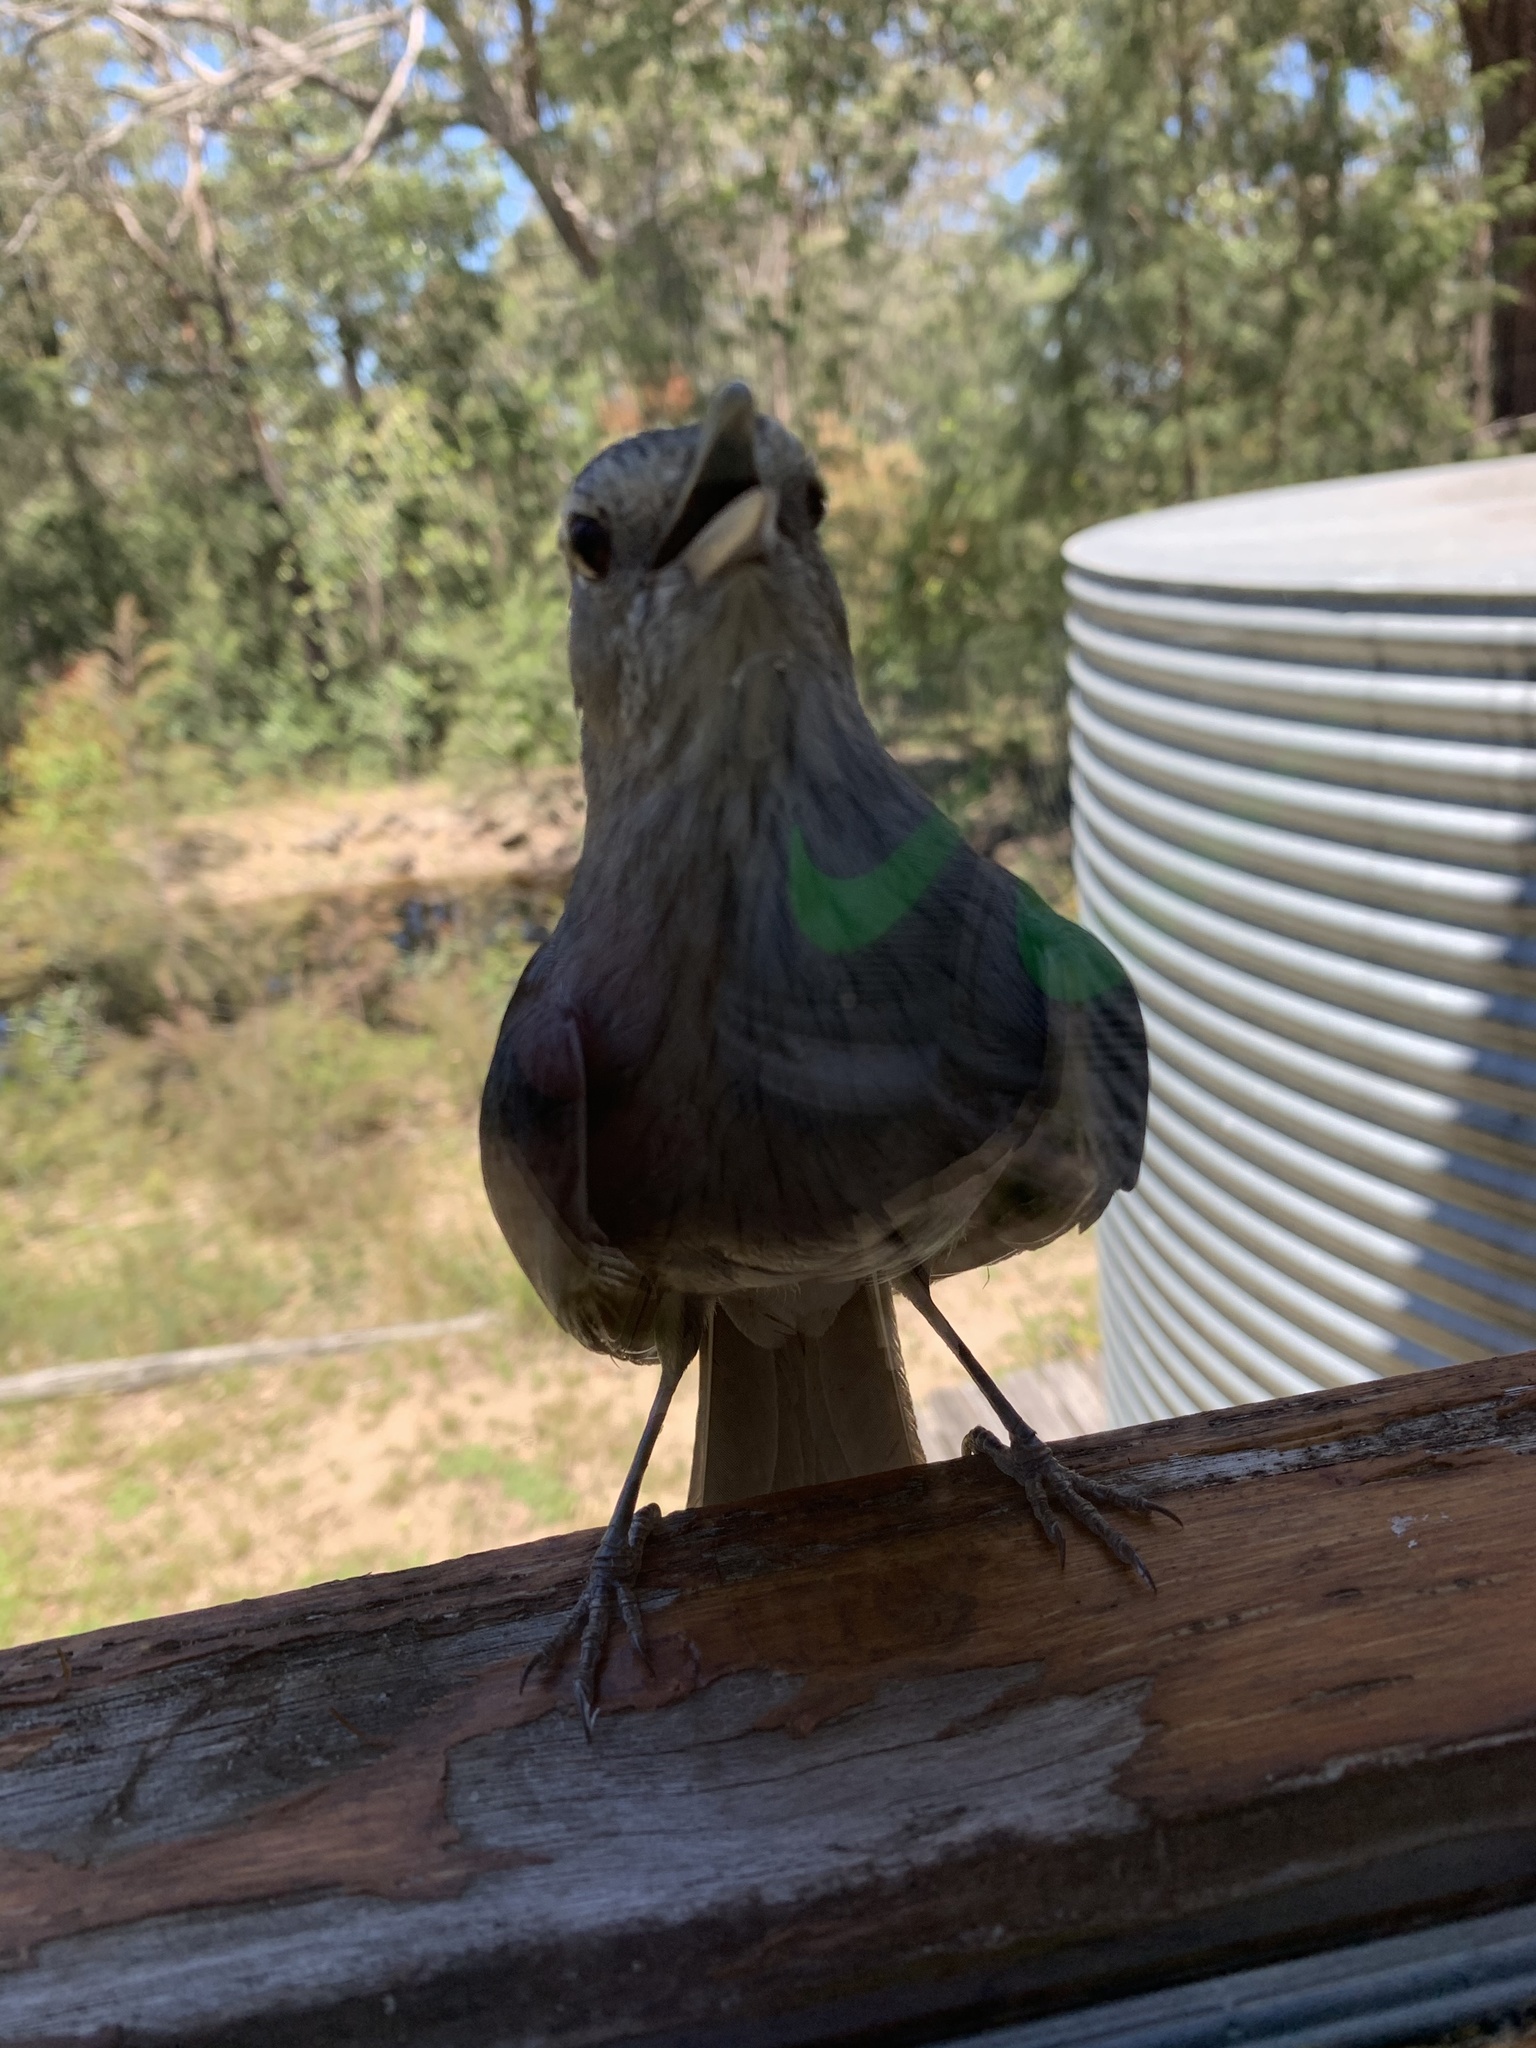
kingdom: Animalia
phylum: Chordata
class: Aves
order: Passeriformes
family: Pachycephalidae
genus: Colluricincla
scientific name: Colluricincla harmonica
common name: Grey shrikethrush
